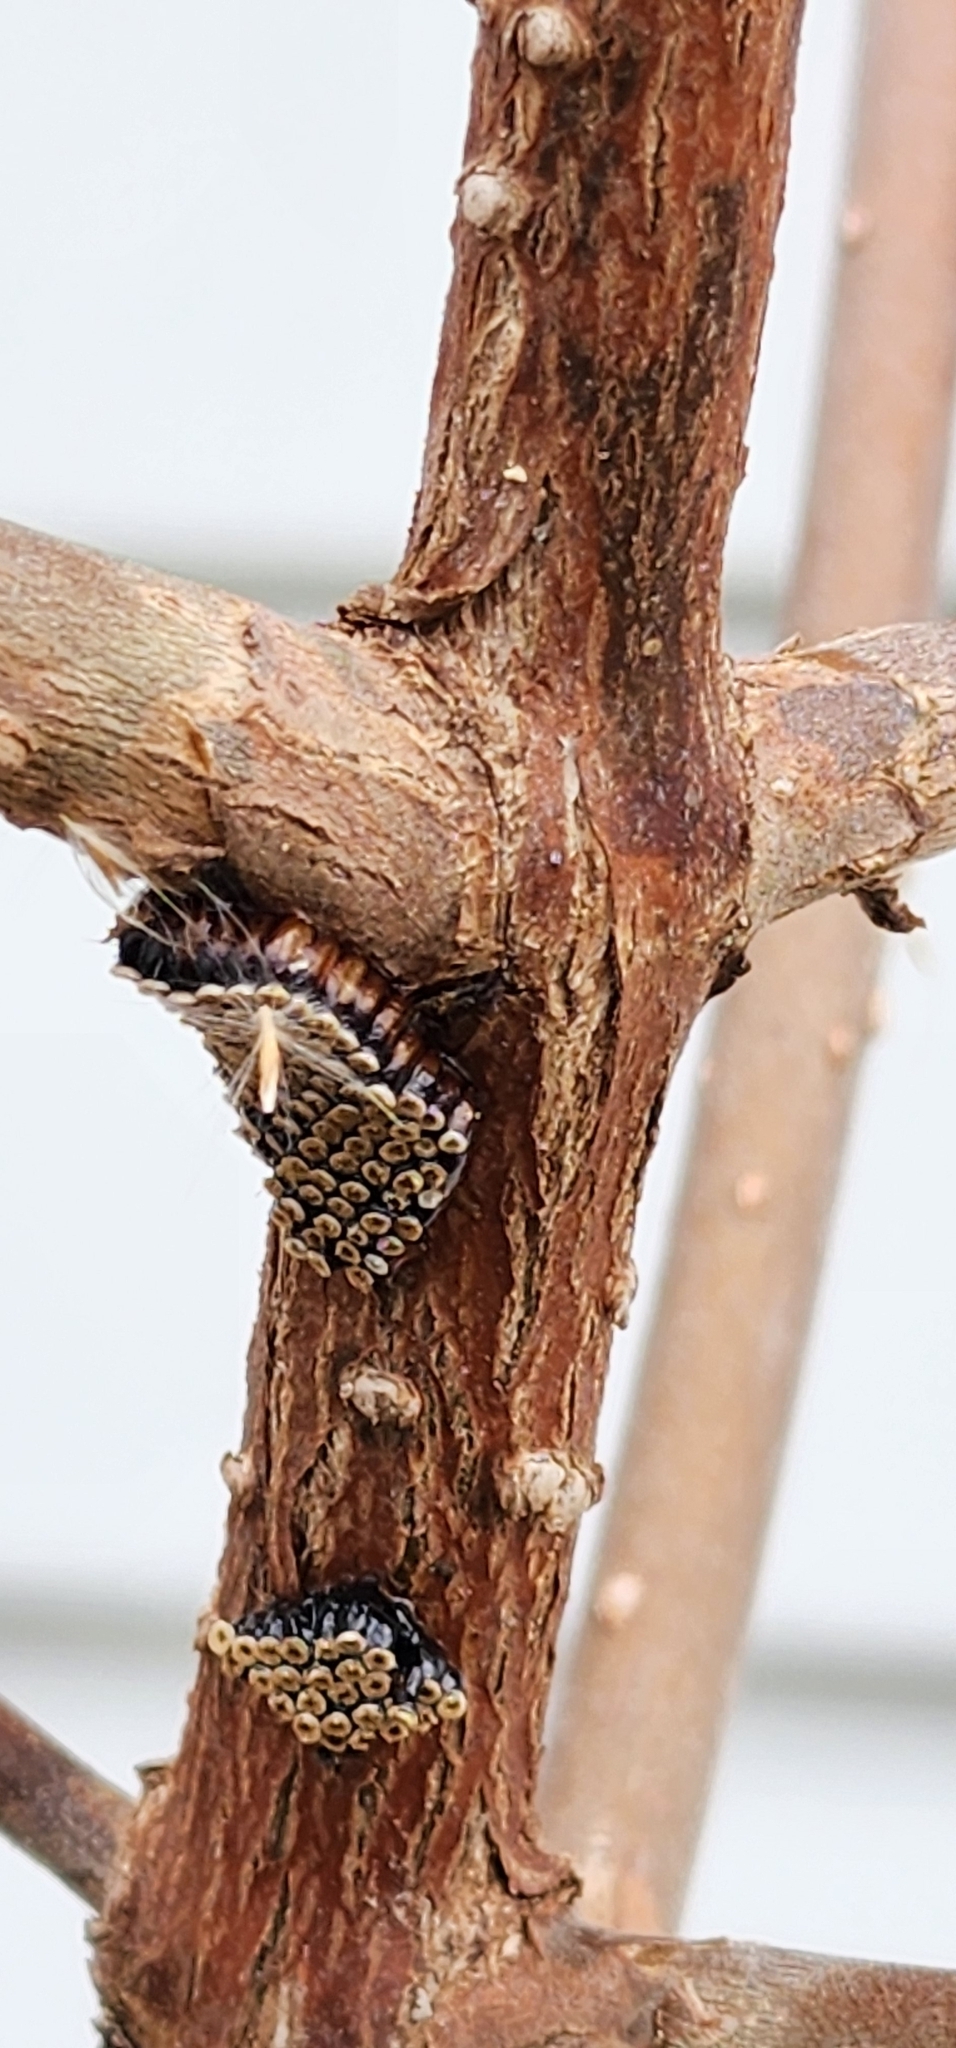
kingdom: Animalia
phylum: Arthropoda
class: Insecta
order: Hemiptera
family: Reduviidae
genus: Arilus
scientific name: Arilus cristatus
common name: North american wheel bug
